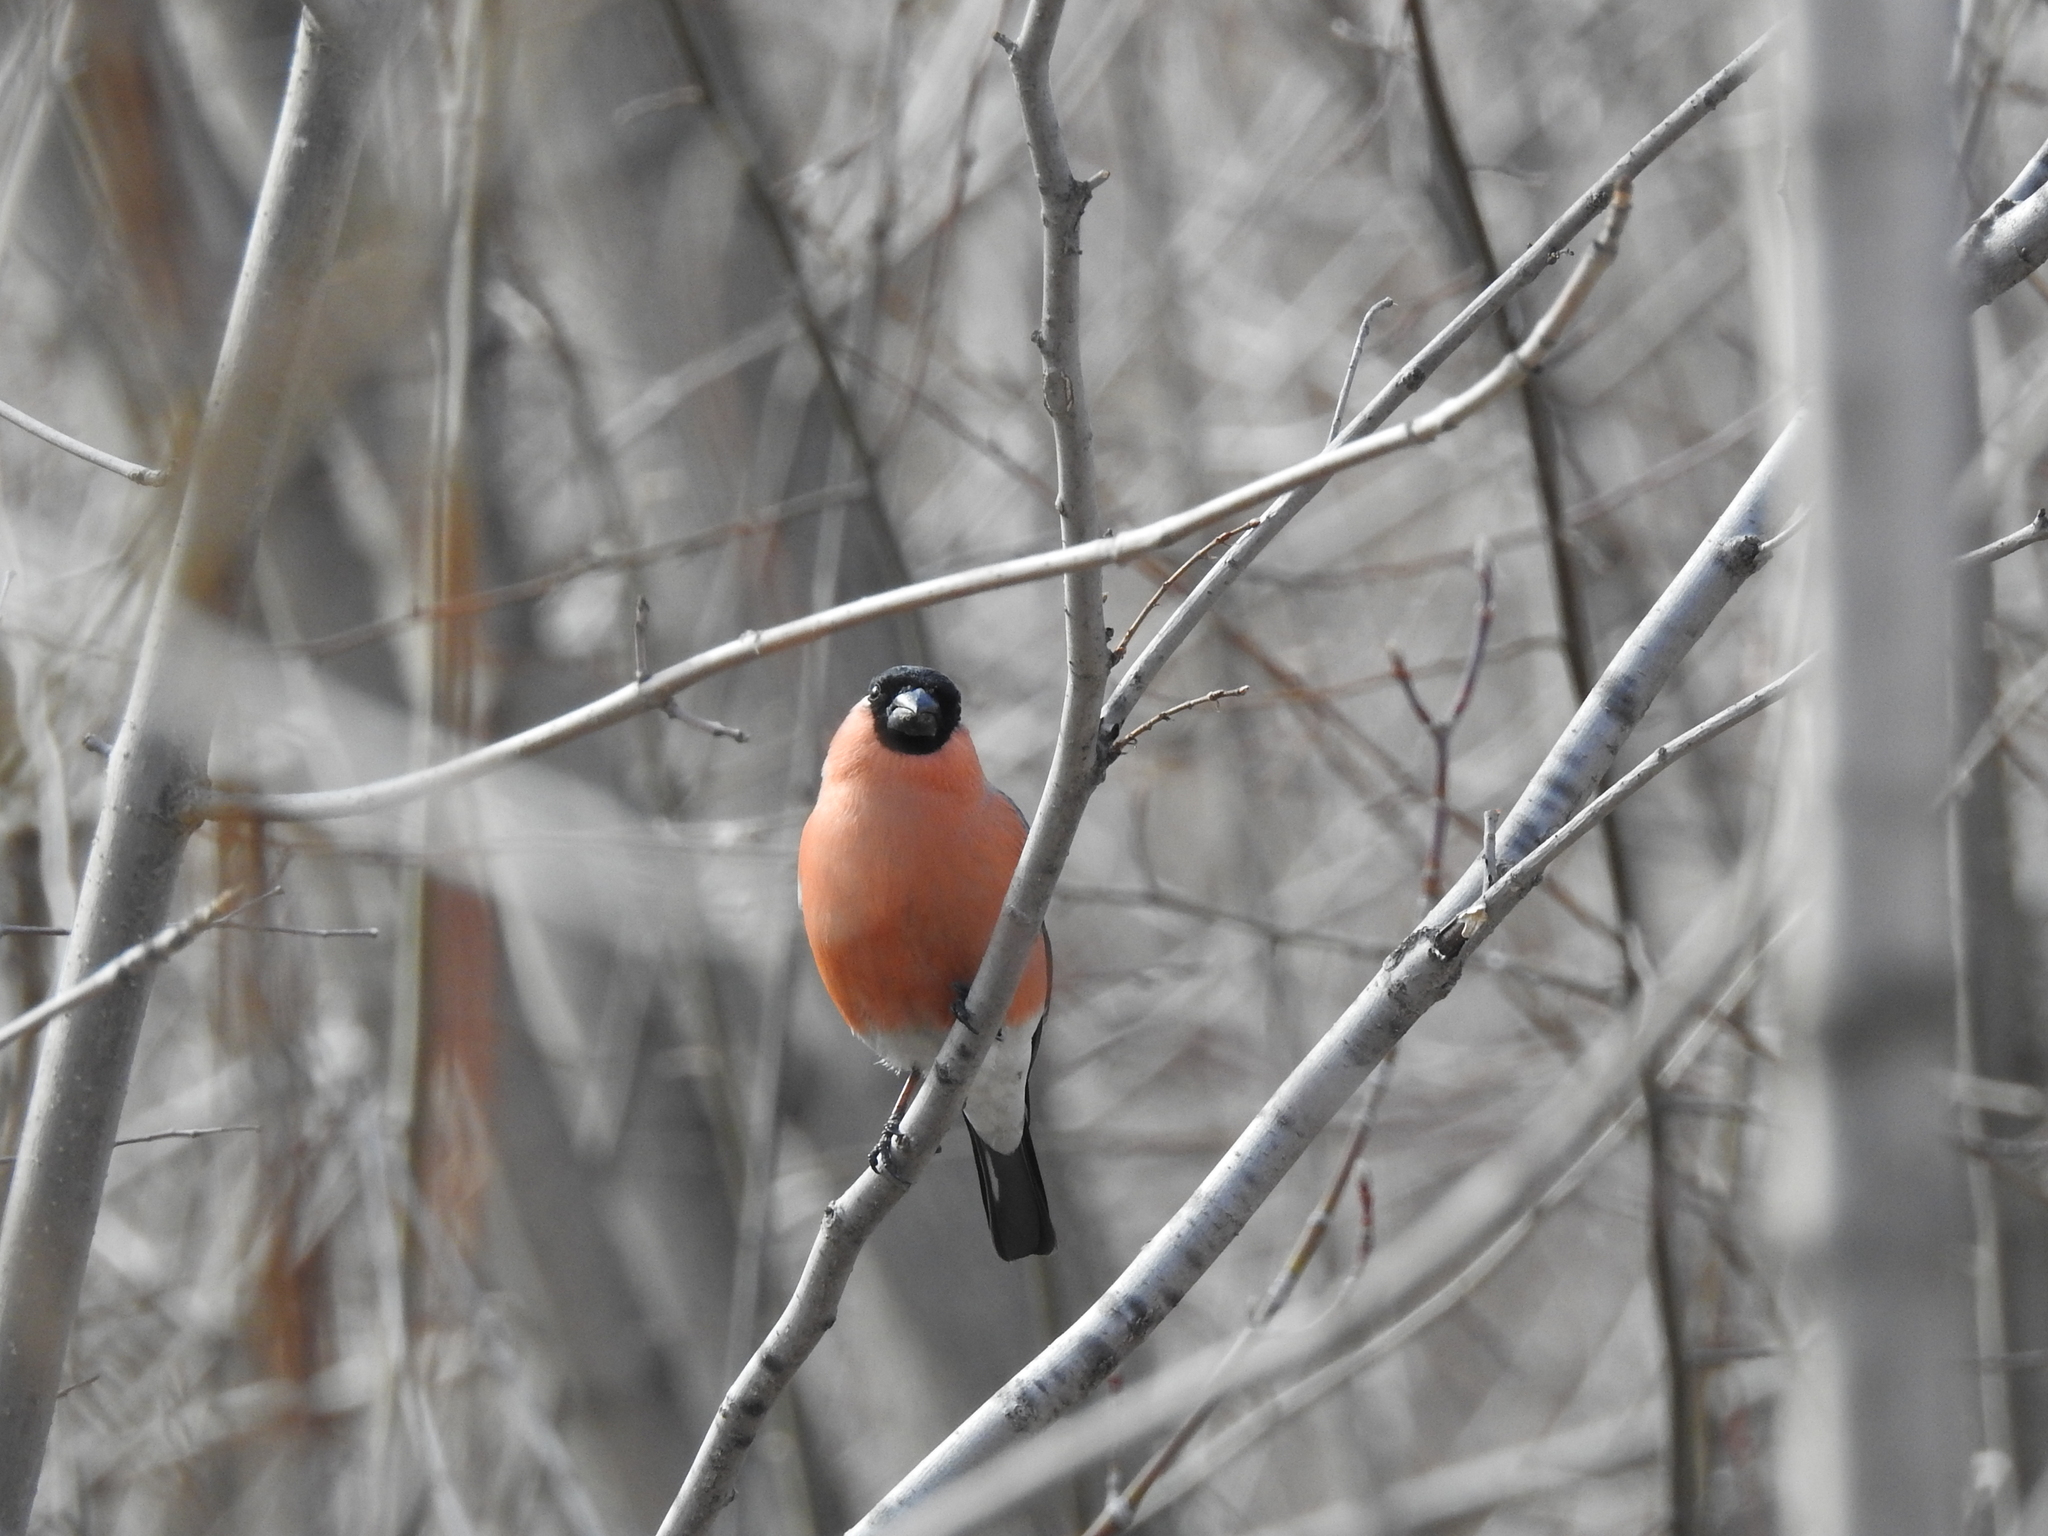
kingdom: Animalia
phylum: Chordata
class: Aves
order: Passeriformes
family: Fringillidae
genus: Pyrrhula
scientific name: Pyrrhula pyrrhula
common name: Eurasian bullfinch
